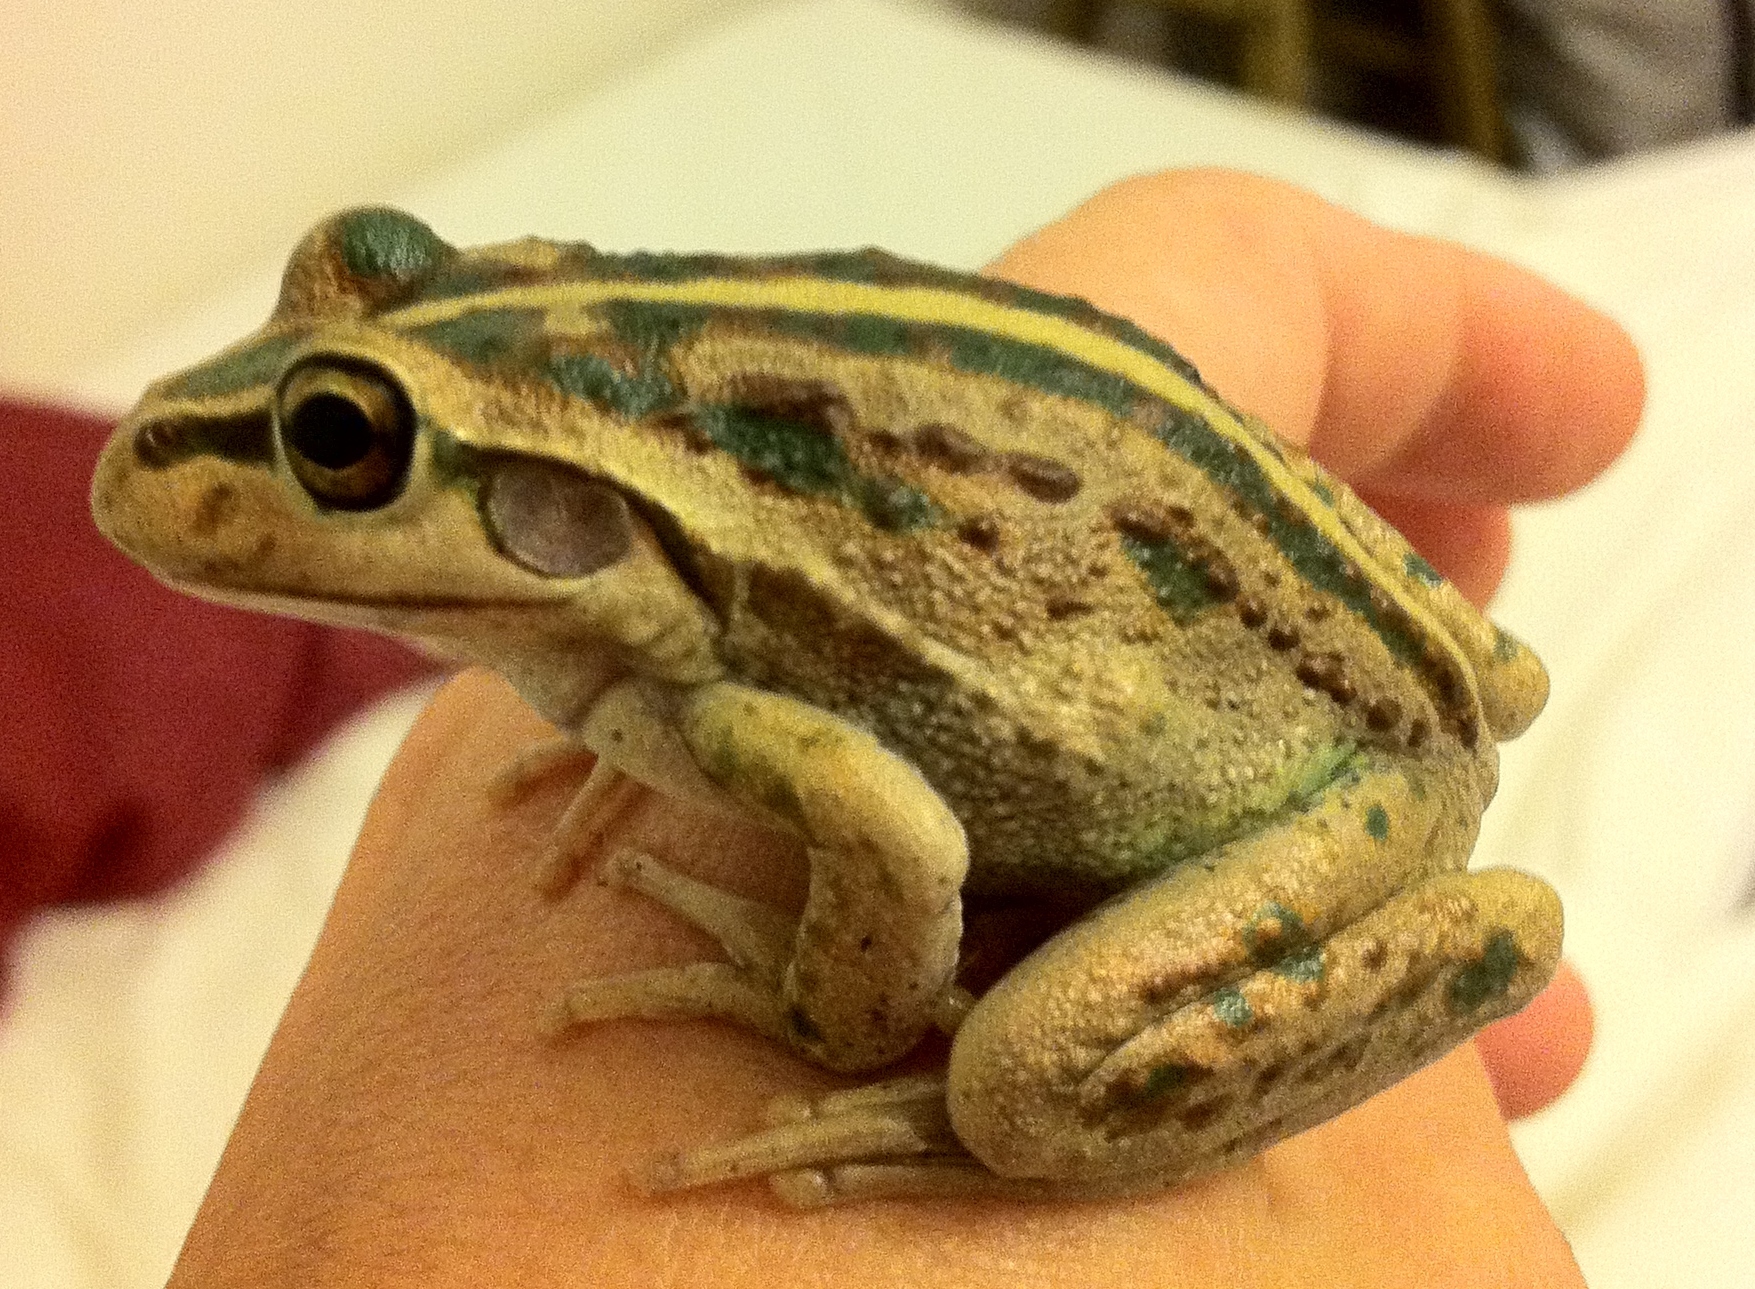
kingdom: Animalia
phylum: Chordata
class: Amphibia
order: Anura
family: Pelodryadidae
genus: Ranoidea
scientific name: Ranoidea moorei
